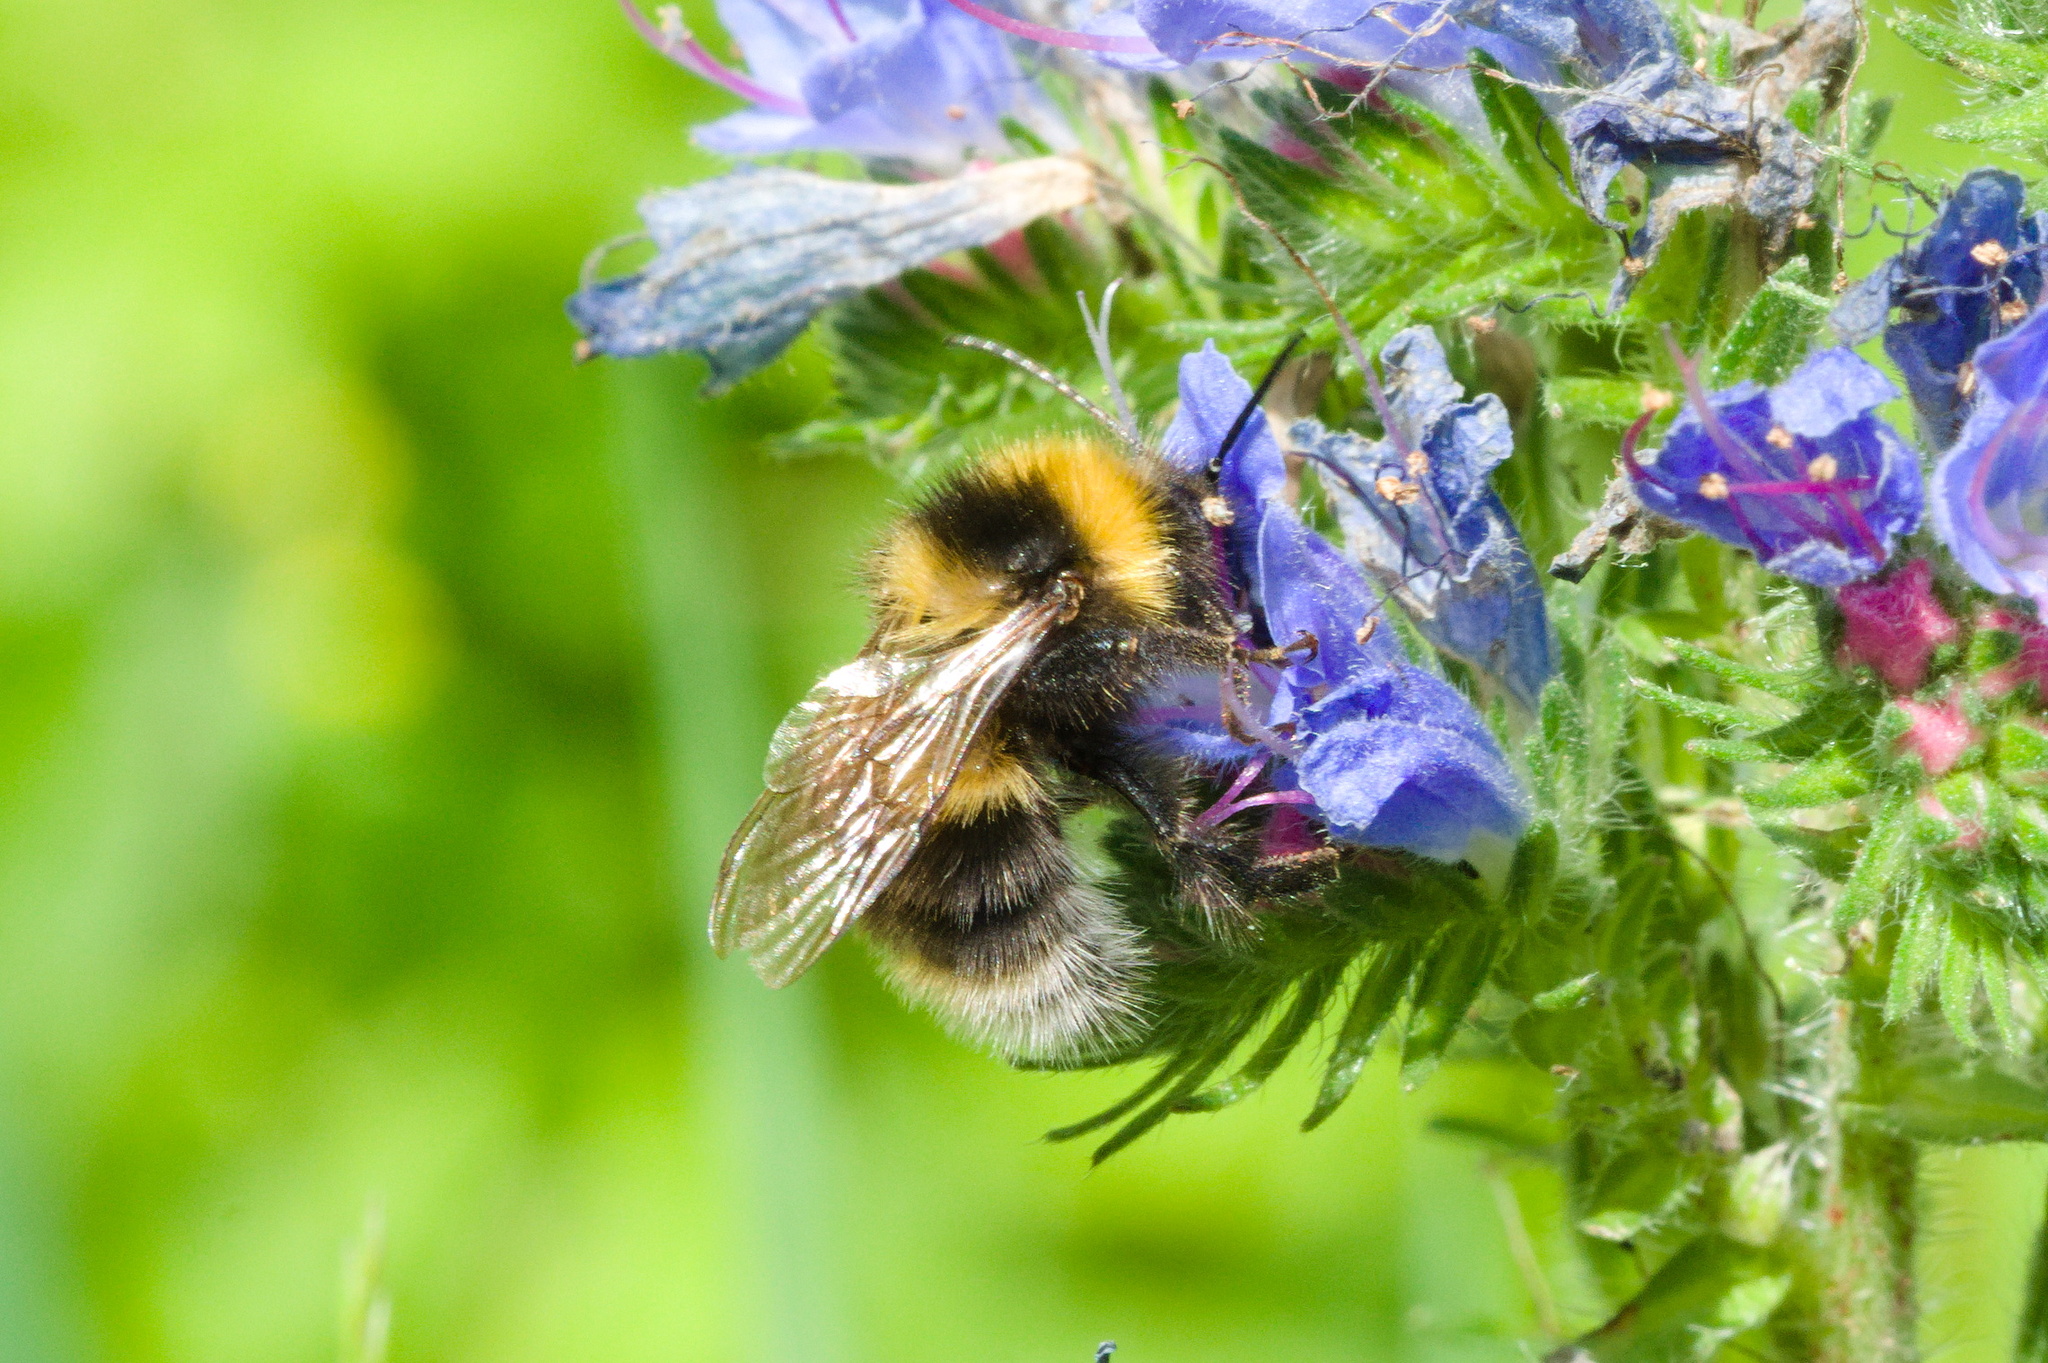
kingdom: Animalia
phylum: Arthropoda
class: Insecta
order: Hymenoptera
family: Apidae
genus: Bombus
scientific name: Bombus hortorum
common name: Garden bumblebee
